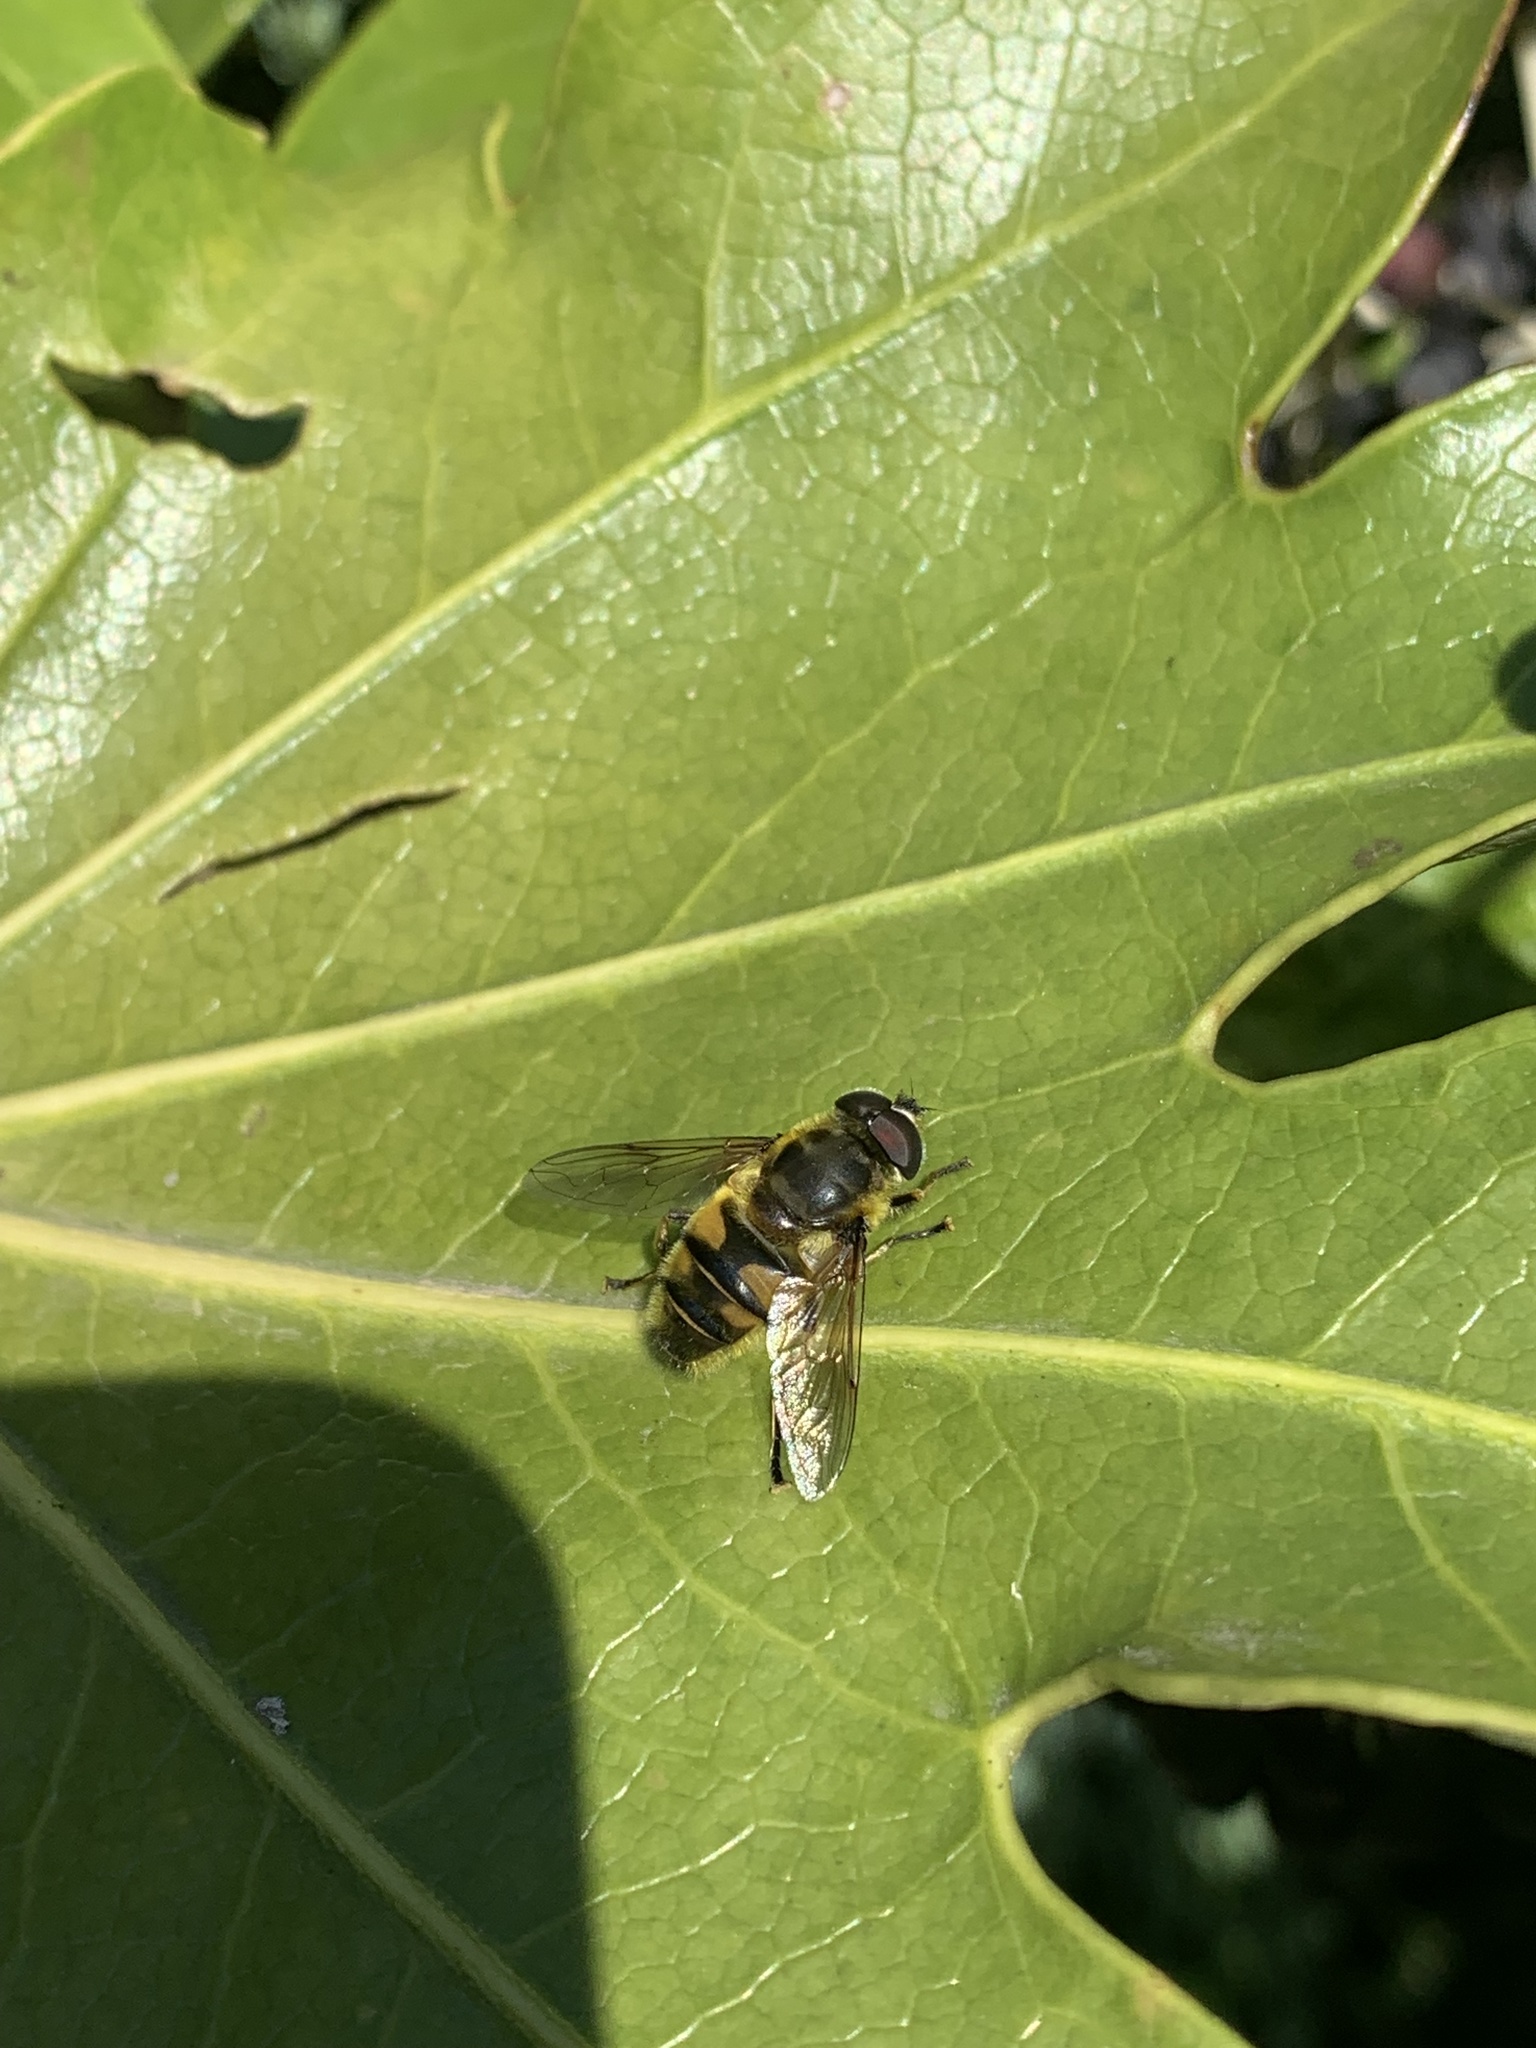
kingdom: Animalia
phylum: Arthropoda
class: Insecta
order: Diptera
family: Syrphidae
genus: Myathropa
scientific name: Myathropa florea
